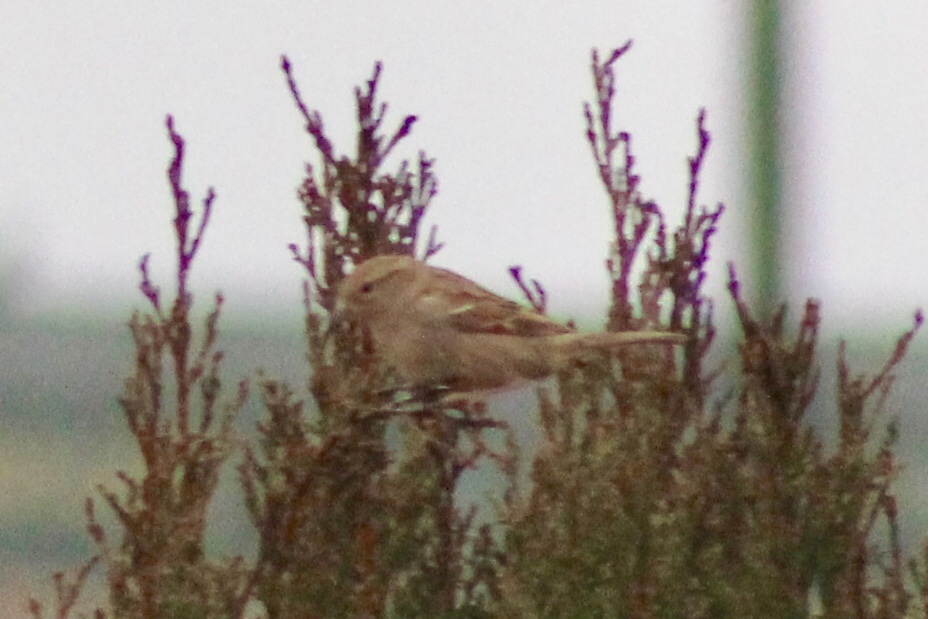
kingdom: Animalia
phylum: Chordata
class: Aves
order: Passeriformes
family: Passeridae
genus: Passer
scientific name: Passer domesticus
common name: House sparrow
